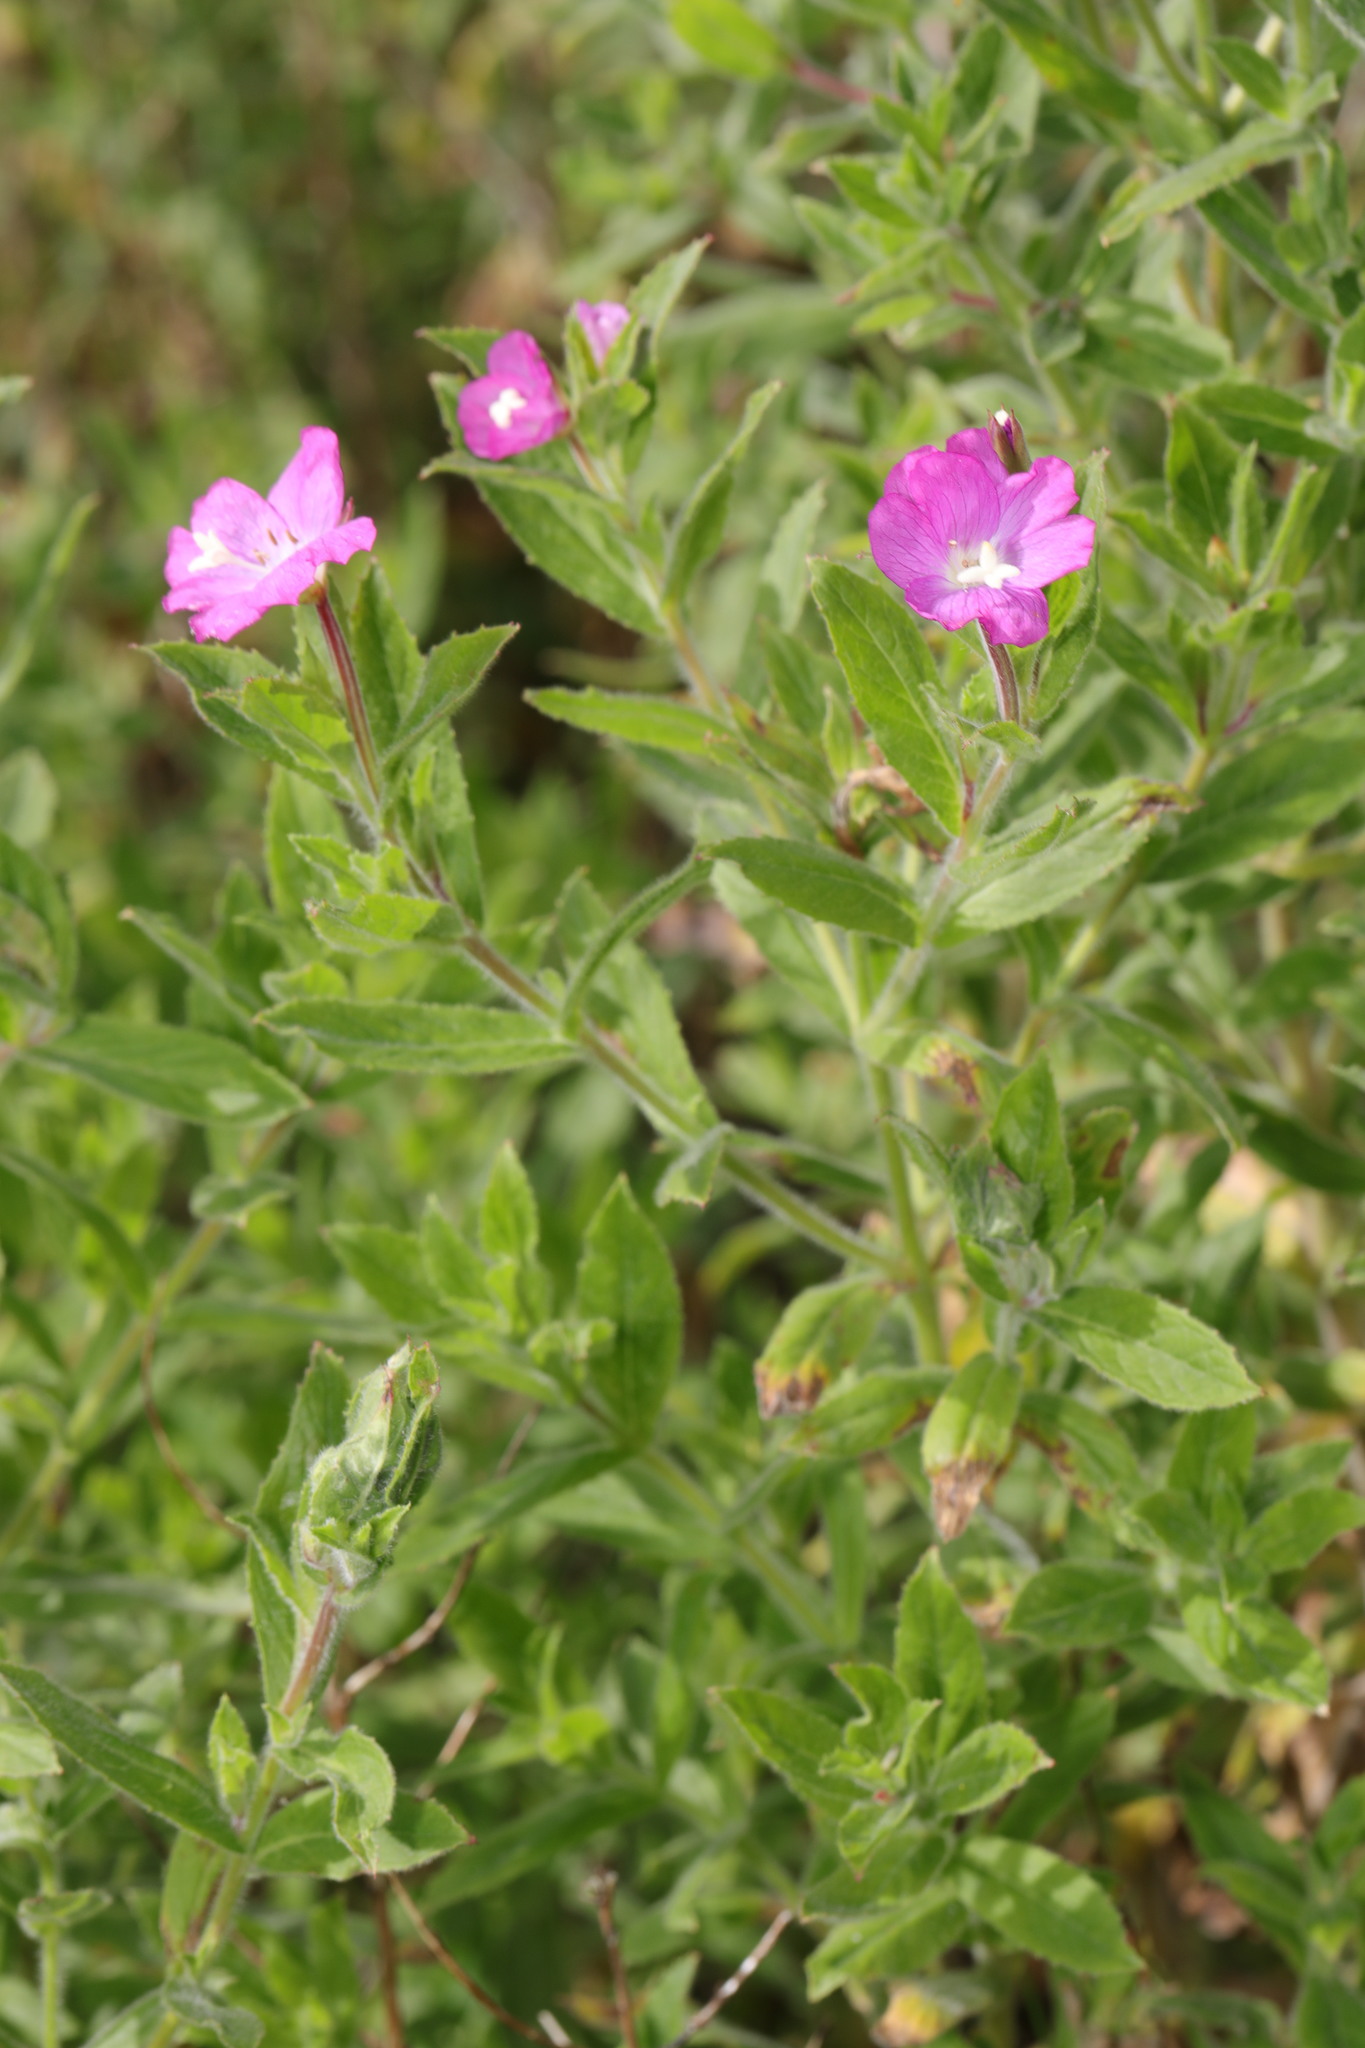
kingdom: Plantae
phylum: Tracheophyta
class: Magnoliopsida
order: Myrtales
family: Onagraceae
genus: Epilobium
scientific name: Epilobium hirsutum
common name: Great willowherb
